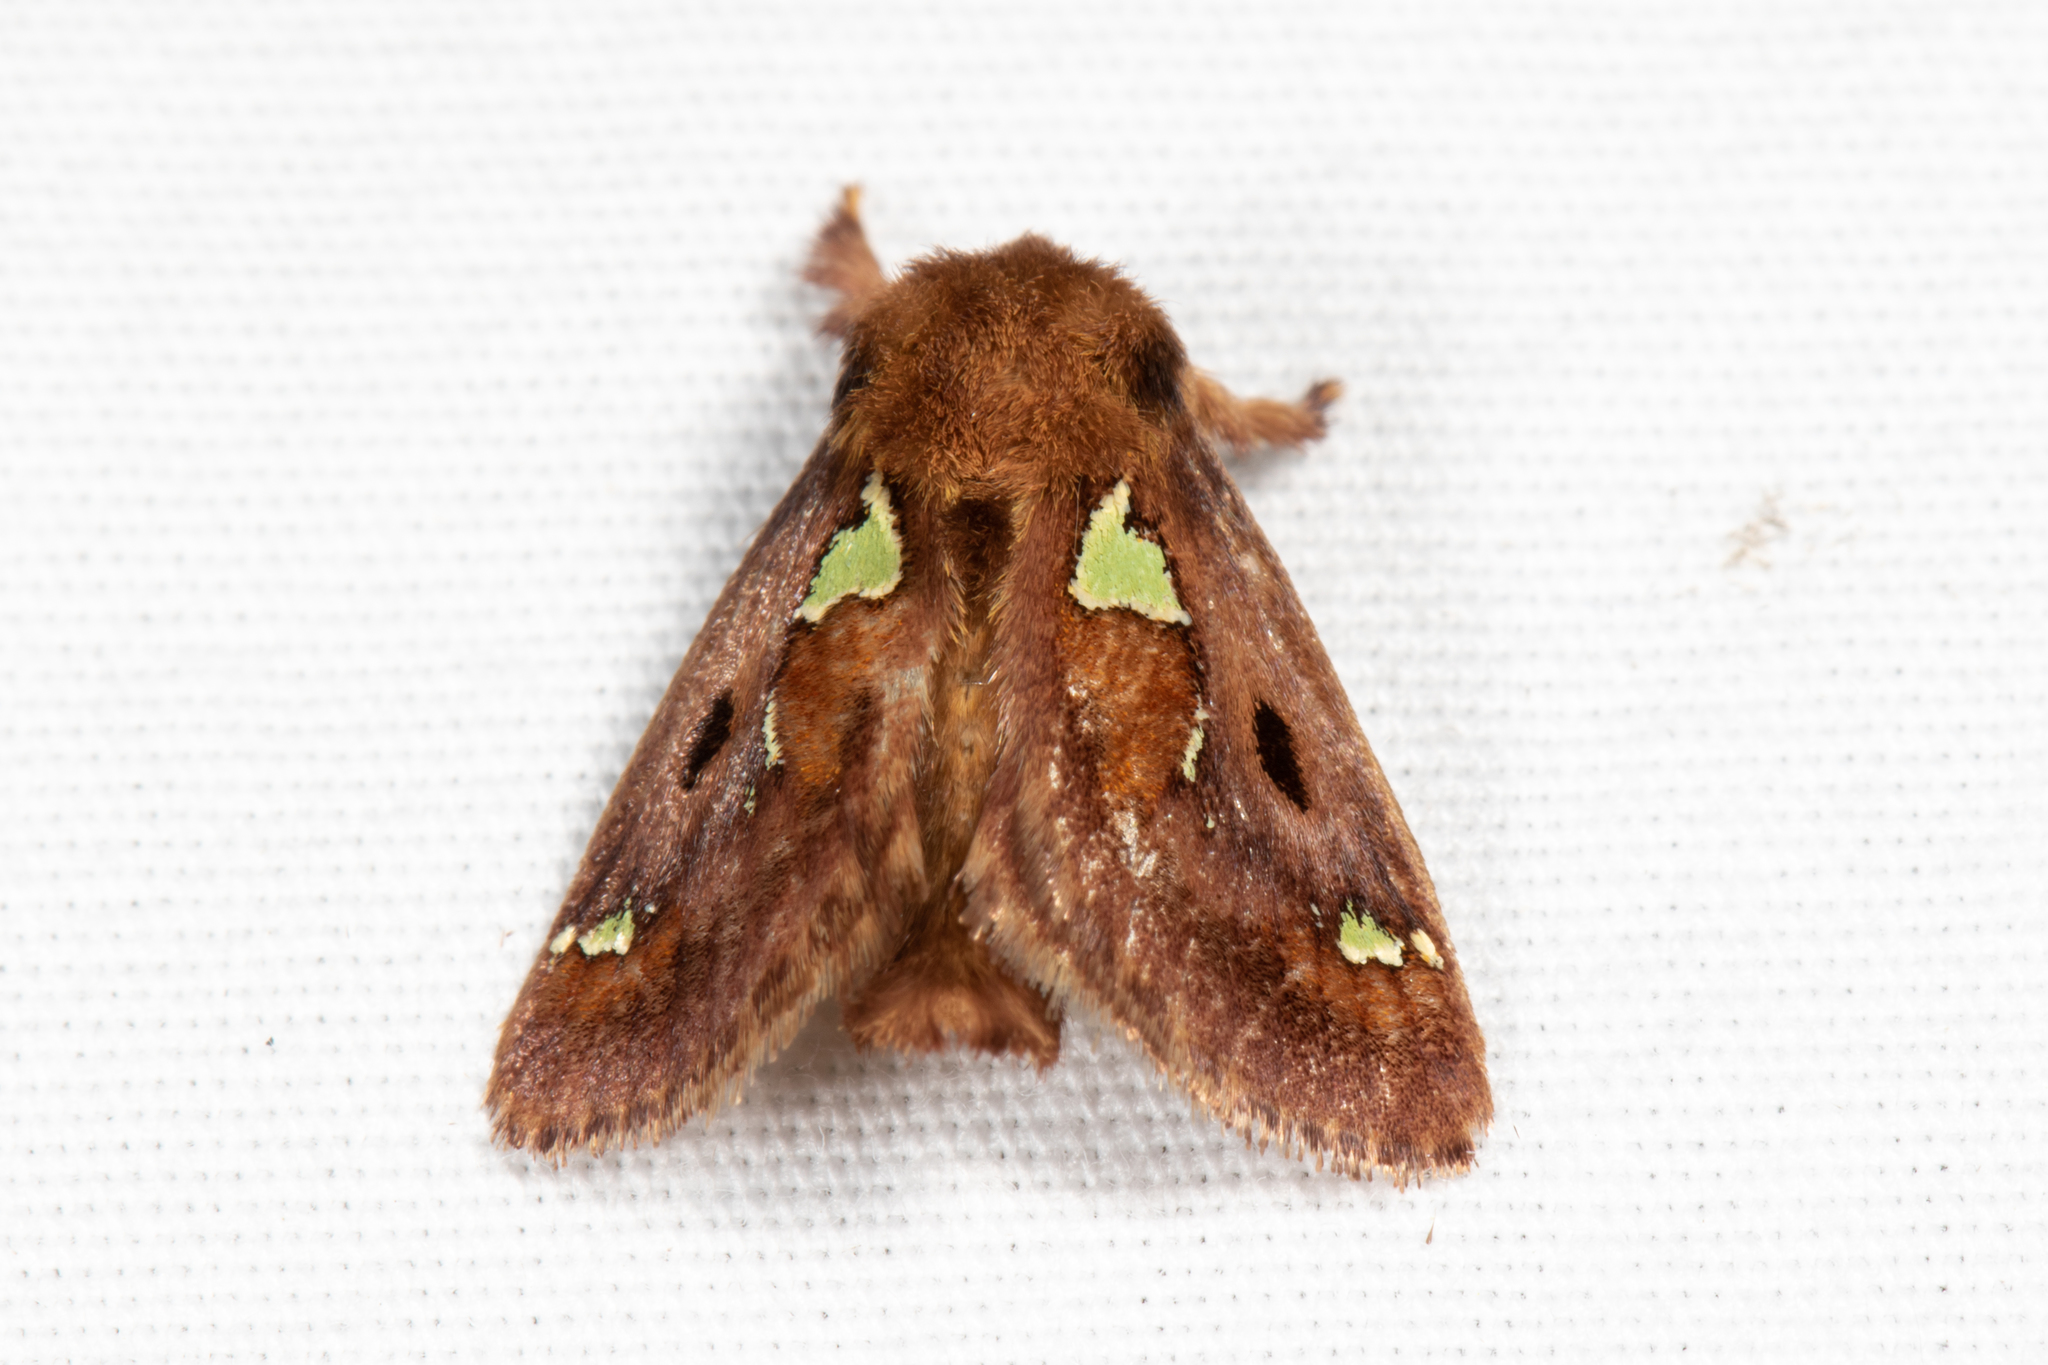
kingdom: Animalia
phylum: Arthropoda
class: Insecta
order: Lepidoptera
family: Limacodidae
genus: Euclea
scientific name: Euclea delphinii
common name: Spiny oak-slug moth
